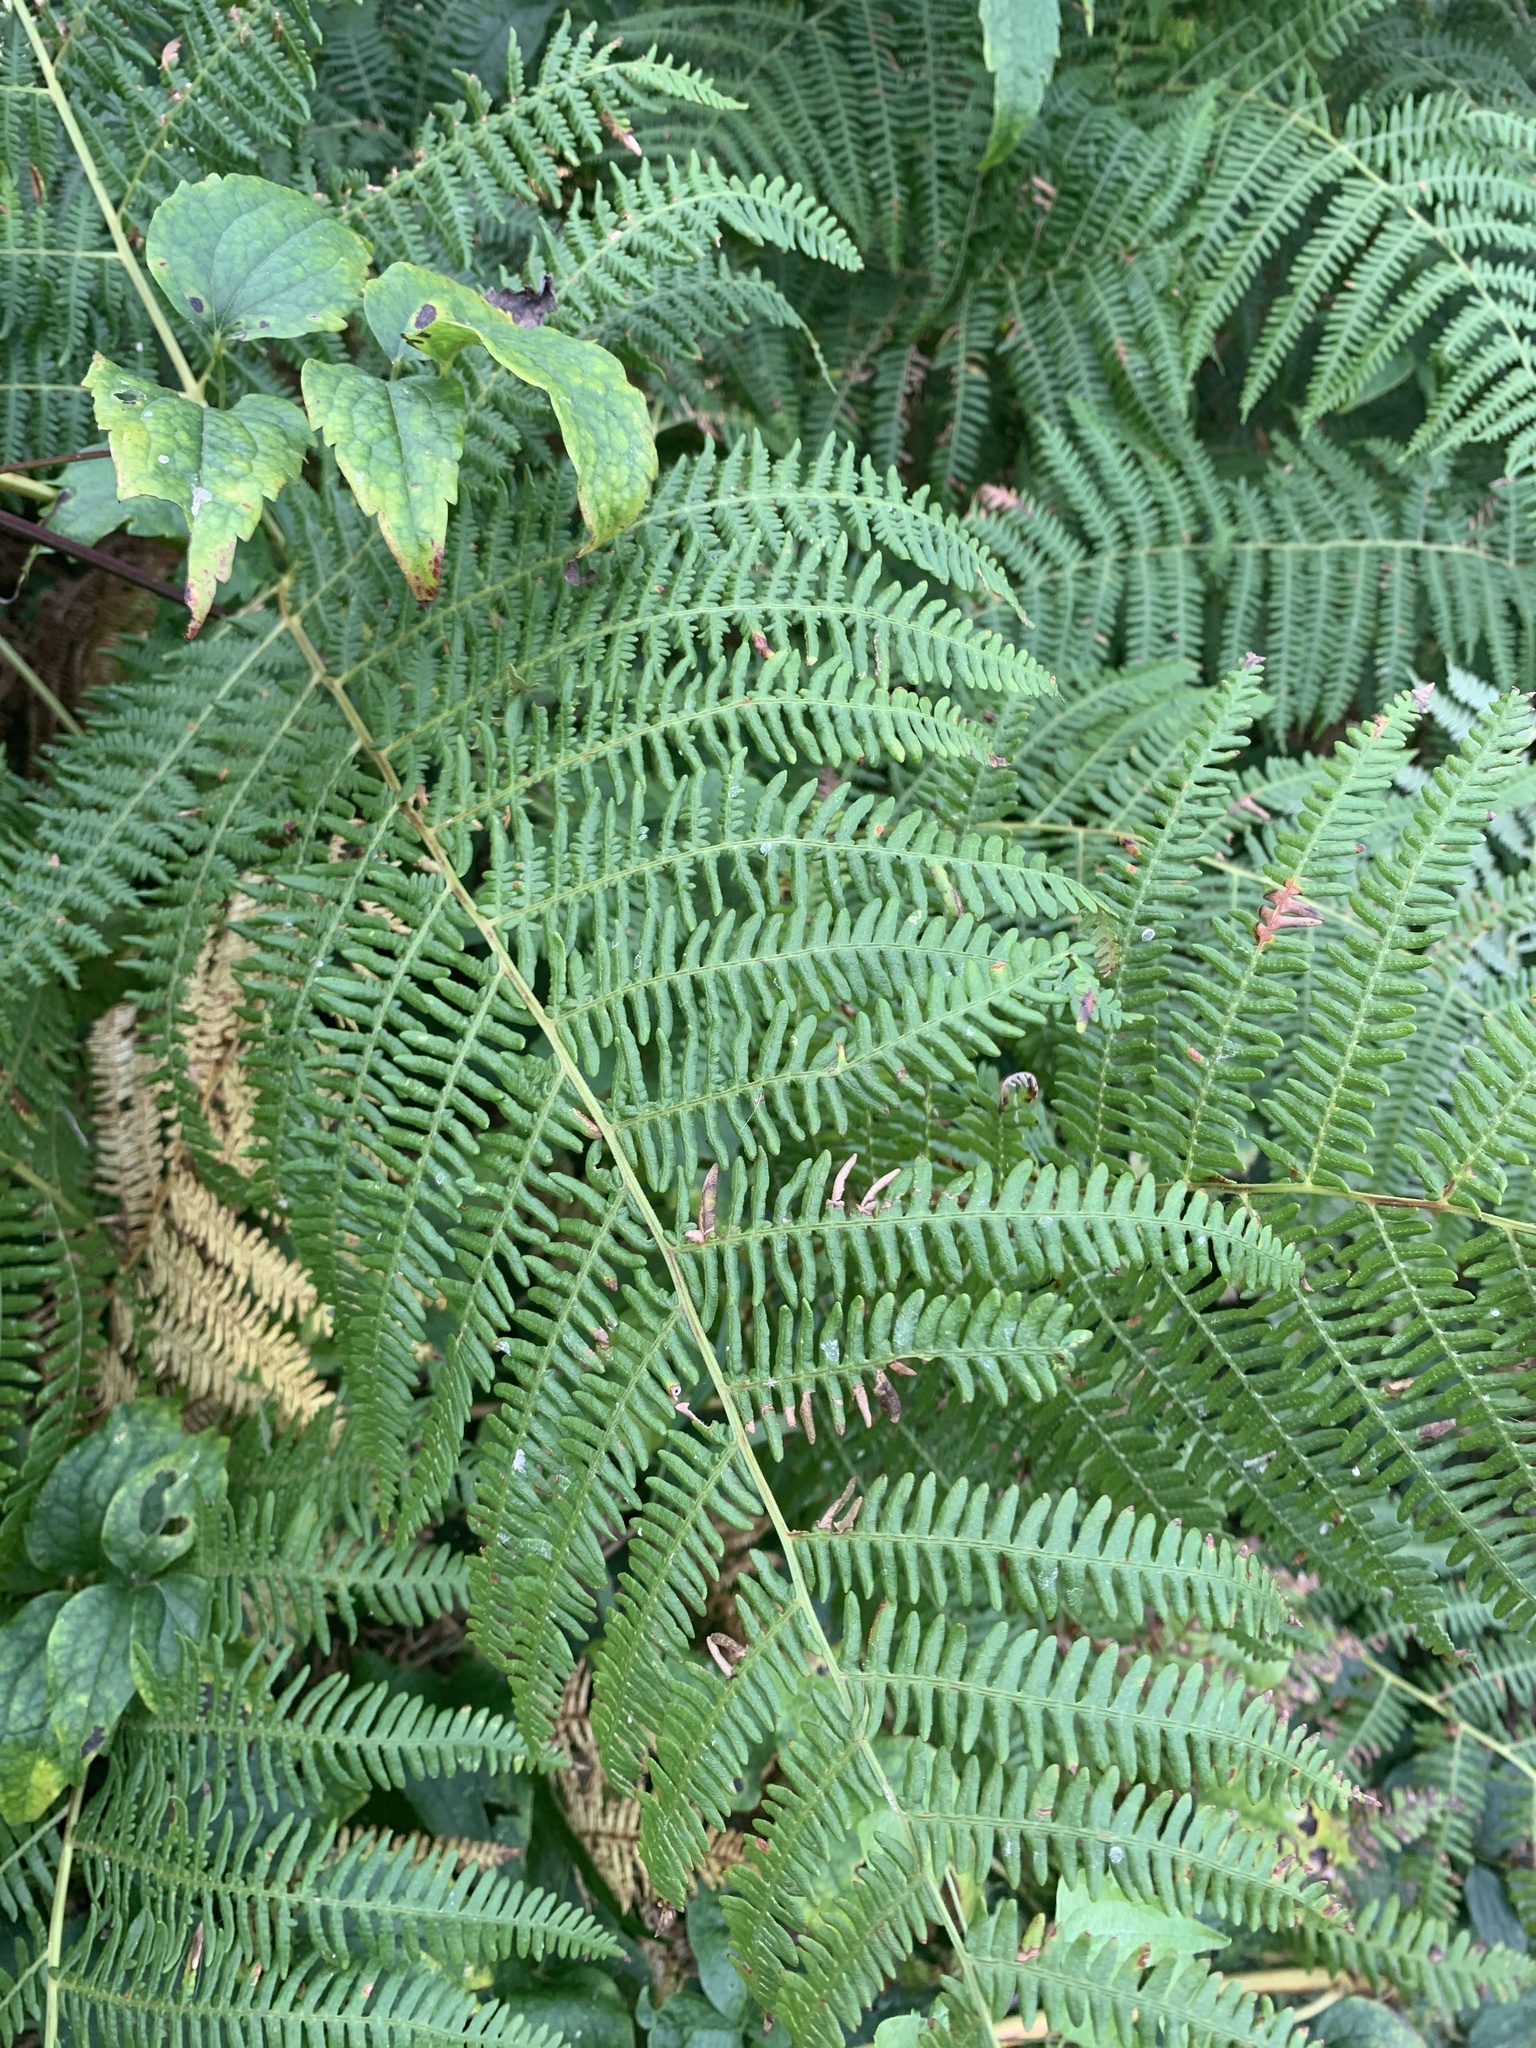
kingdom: Plantae
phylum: Tracheophyta
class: Polypodiopsida
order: Polypodiales
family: Dennstaedtiaceae
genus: Pteridium
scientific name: Pteridium aquilinum
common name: Bracken
